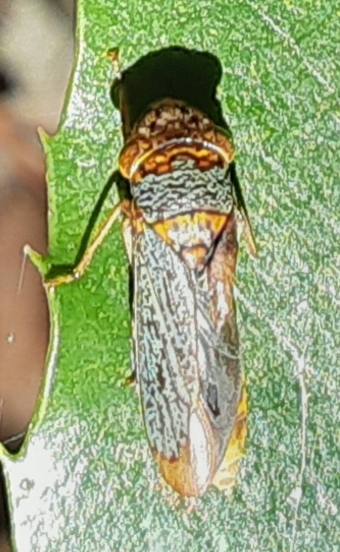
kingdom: Animalia
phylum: Arthropoda
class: Insecta
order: Hemiptera
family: Cicadellidae
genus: Oncometopia
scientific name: Oncometopia orbona
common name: Broad-headed sharpshooter
